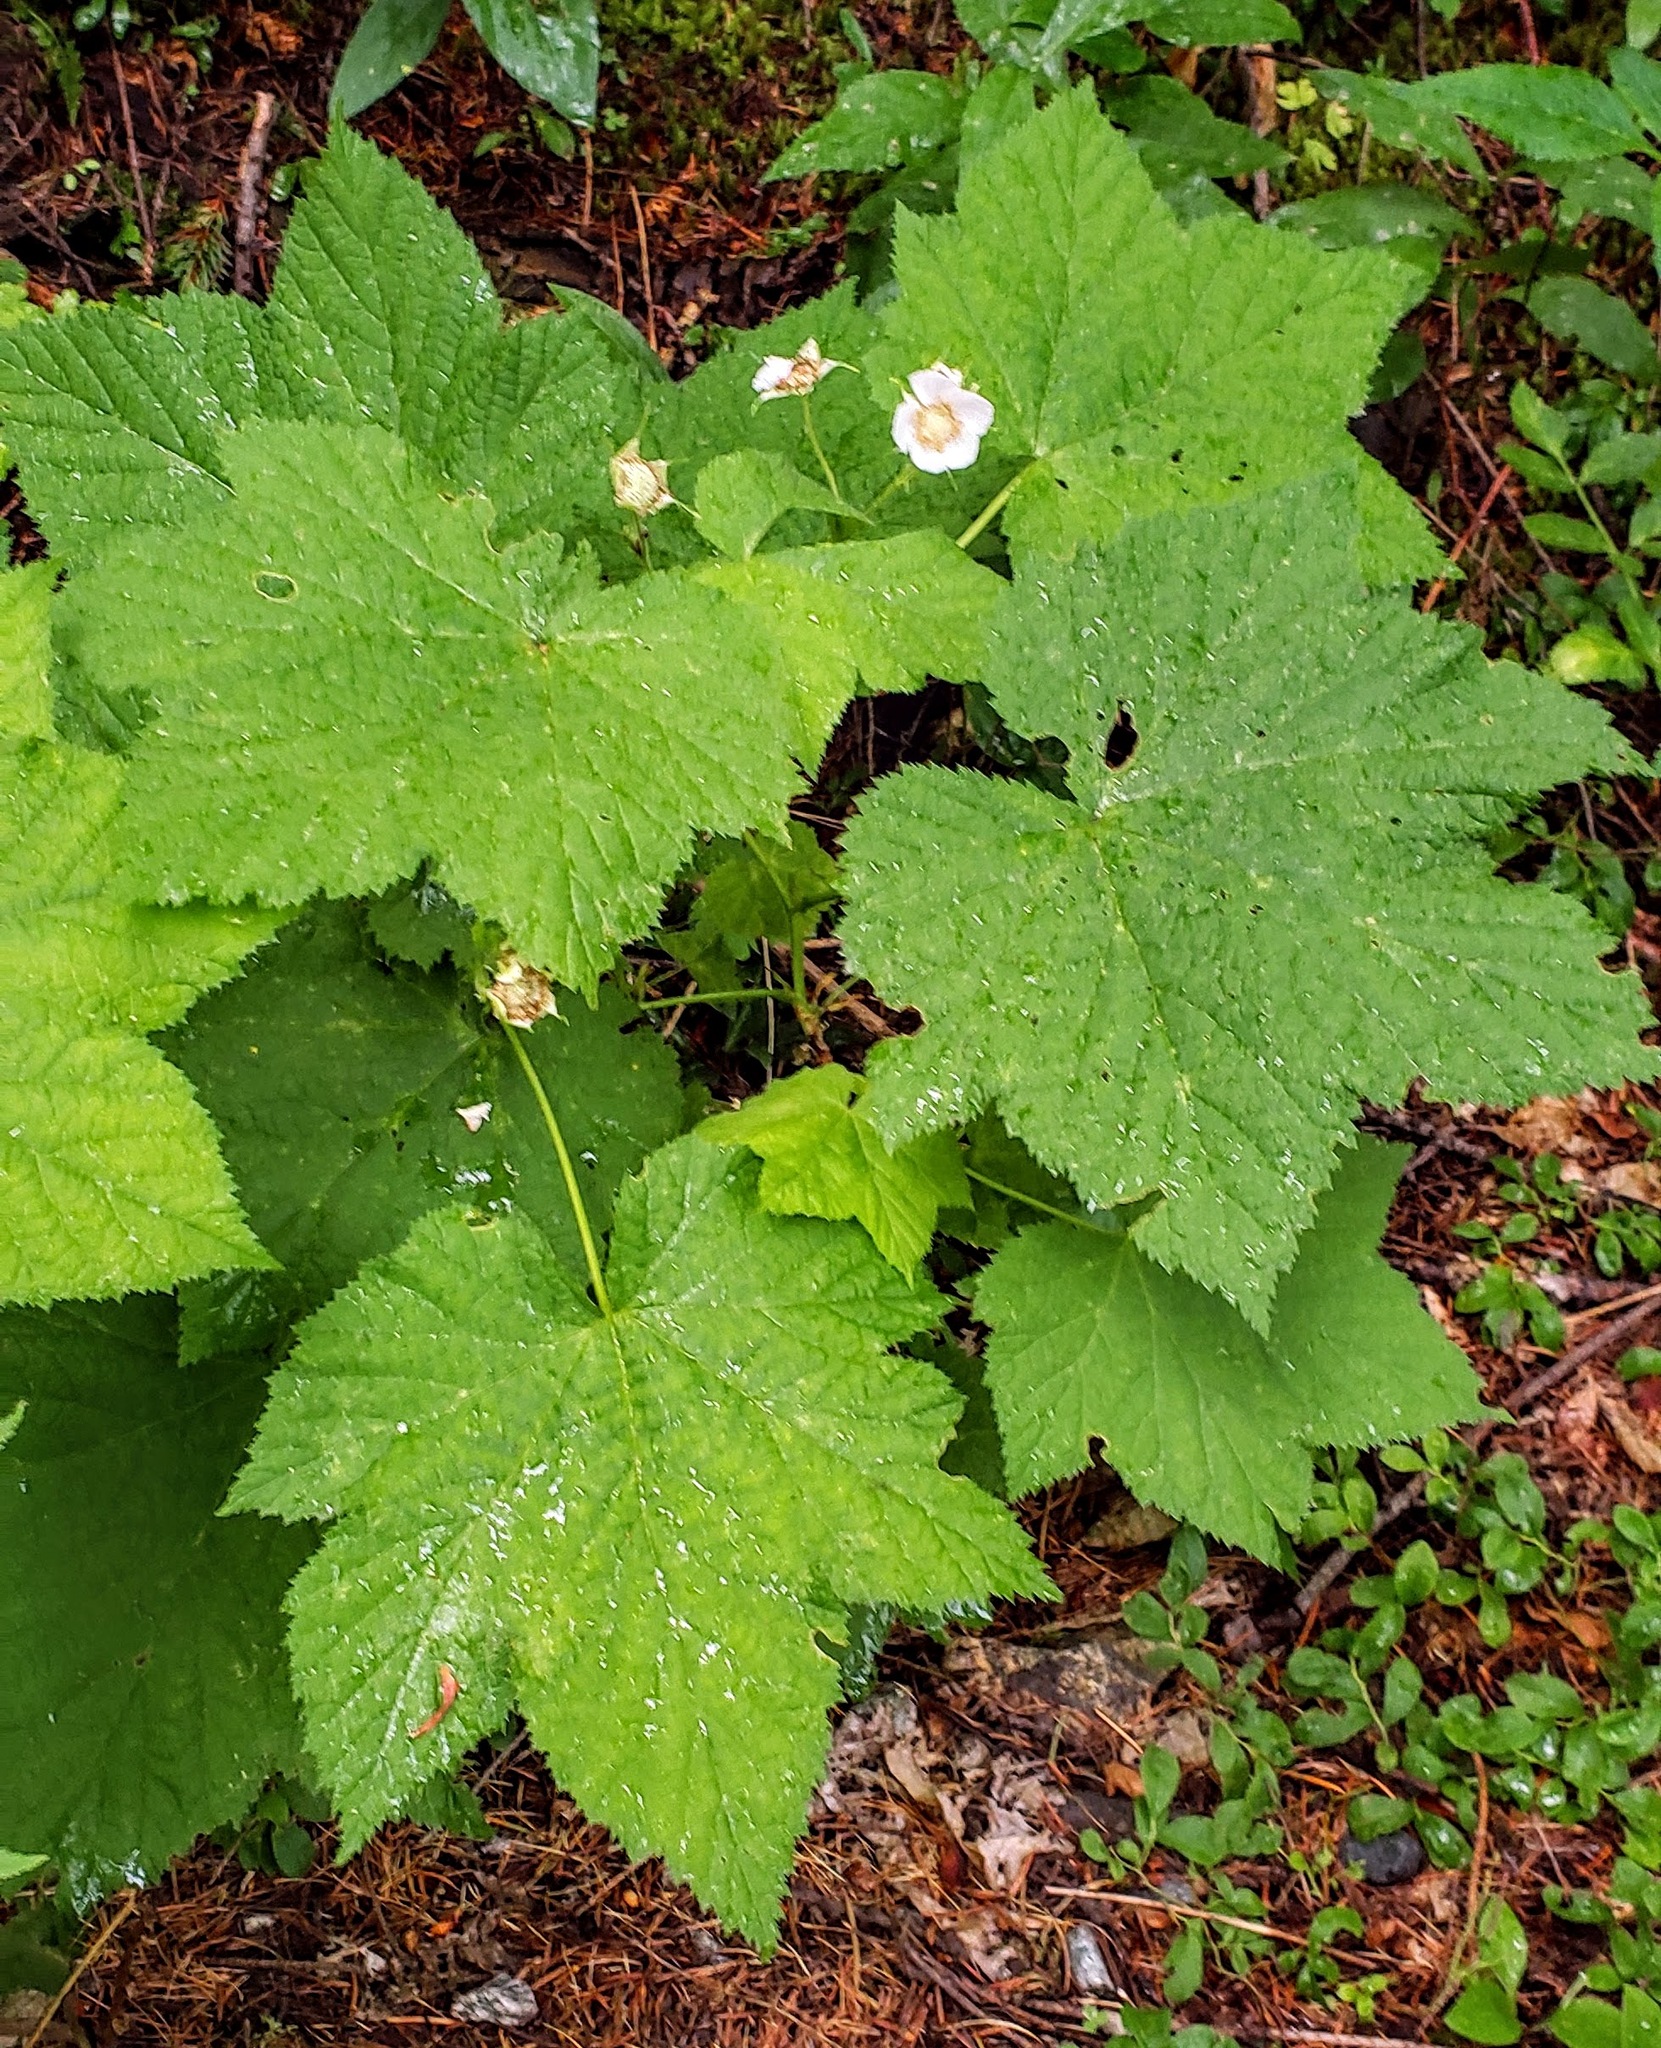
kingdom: Plantae
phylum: Tracheophyta
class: Magnoliopsida
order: Rosales
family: Rosaceae
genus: Rubus
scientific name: Rubus parviflorus
